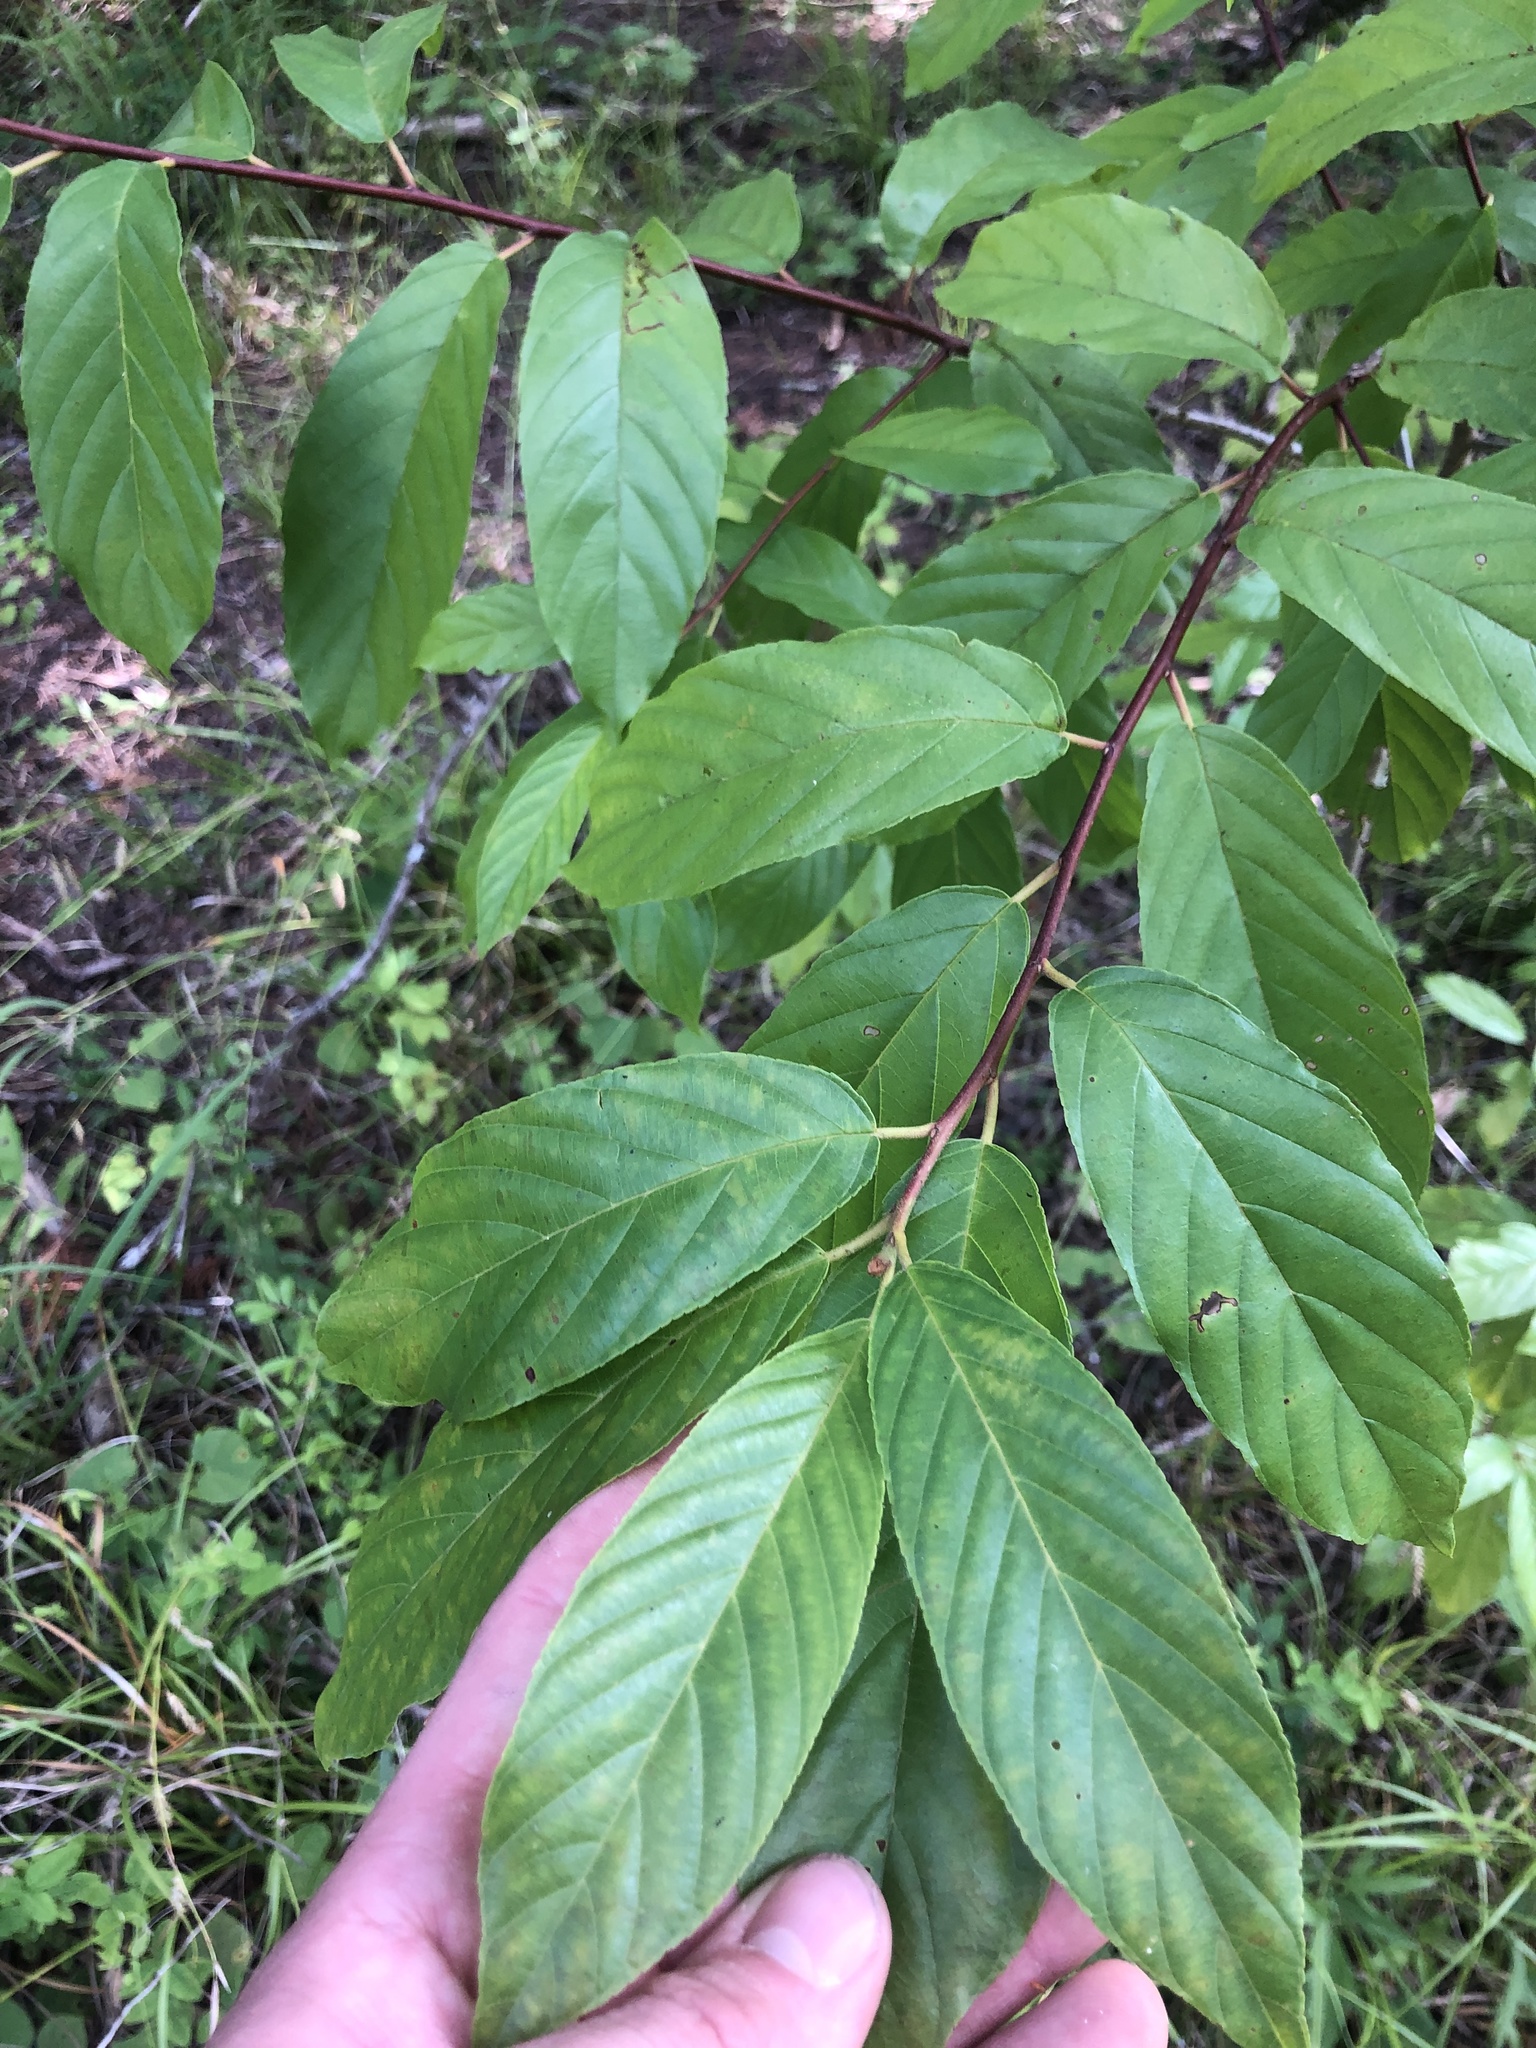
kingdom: Plantae
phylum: Tracheophyta
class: Magnoliopsida
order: Rosales
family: Rhamnaceae
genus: Frangula
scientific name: Frangula caroliniana
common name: Carolina buckthorn
